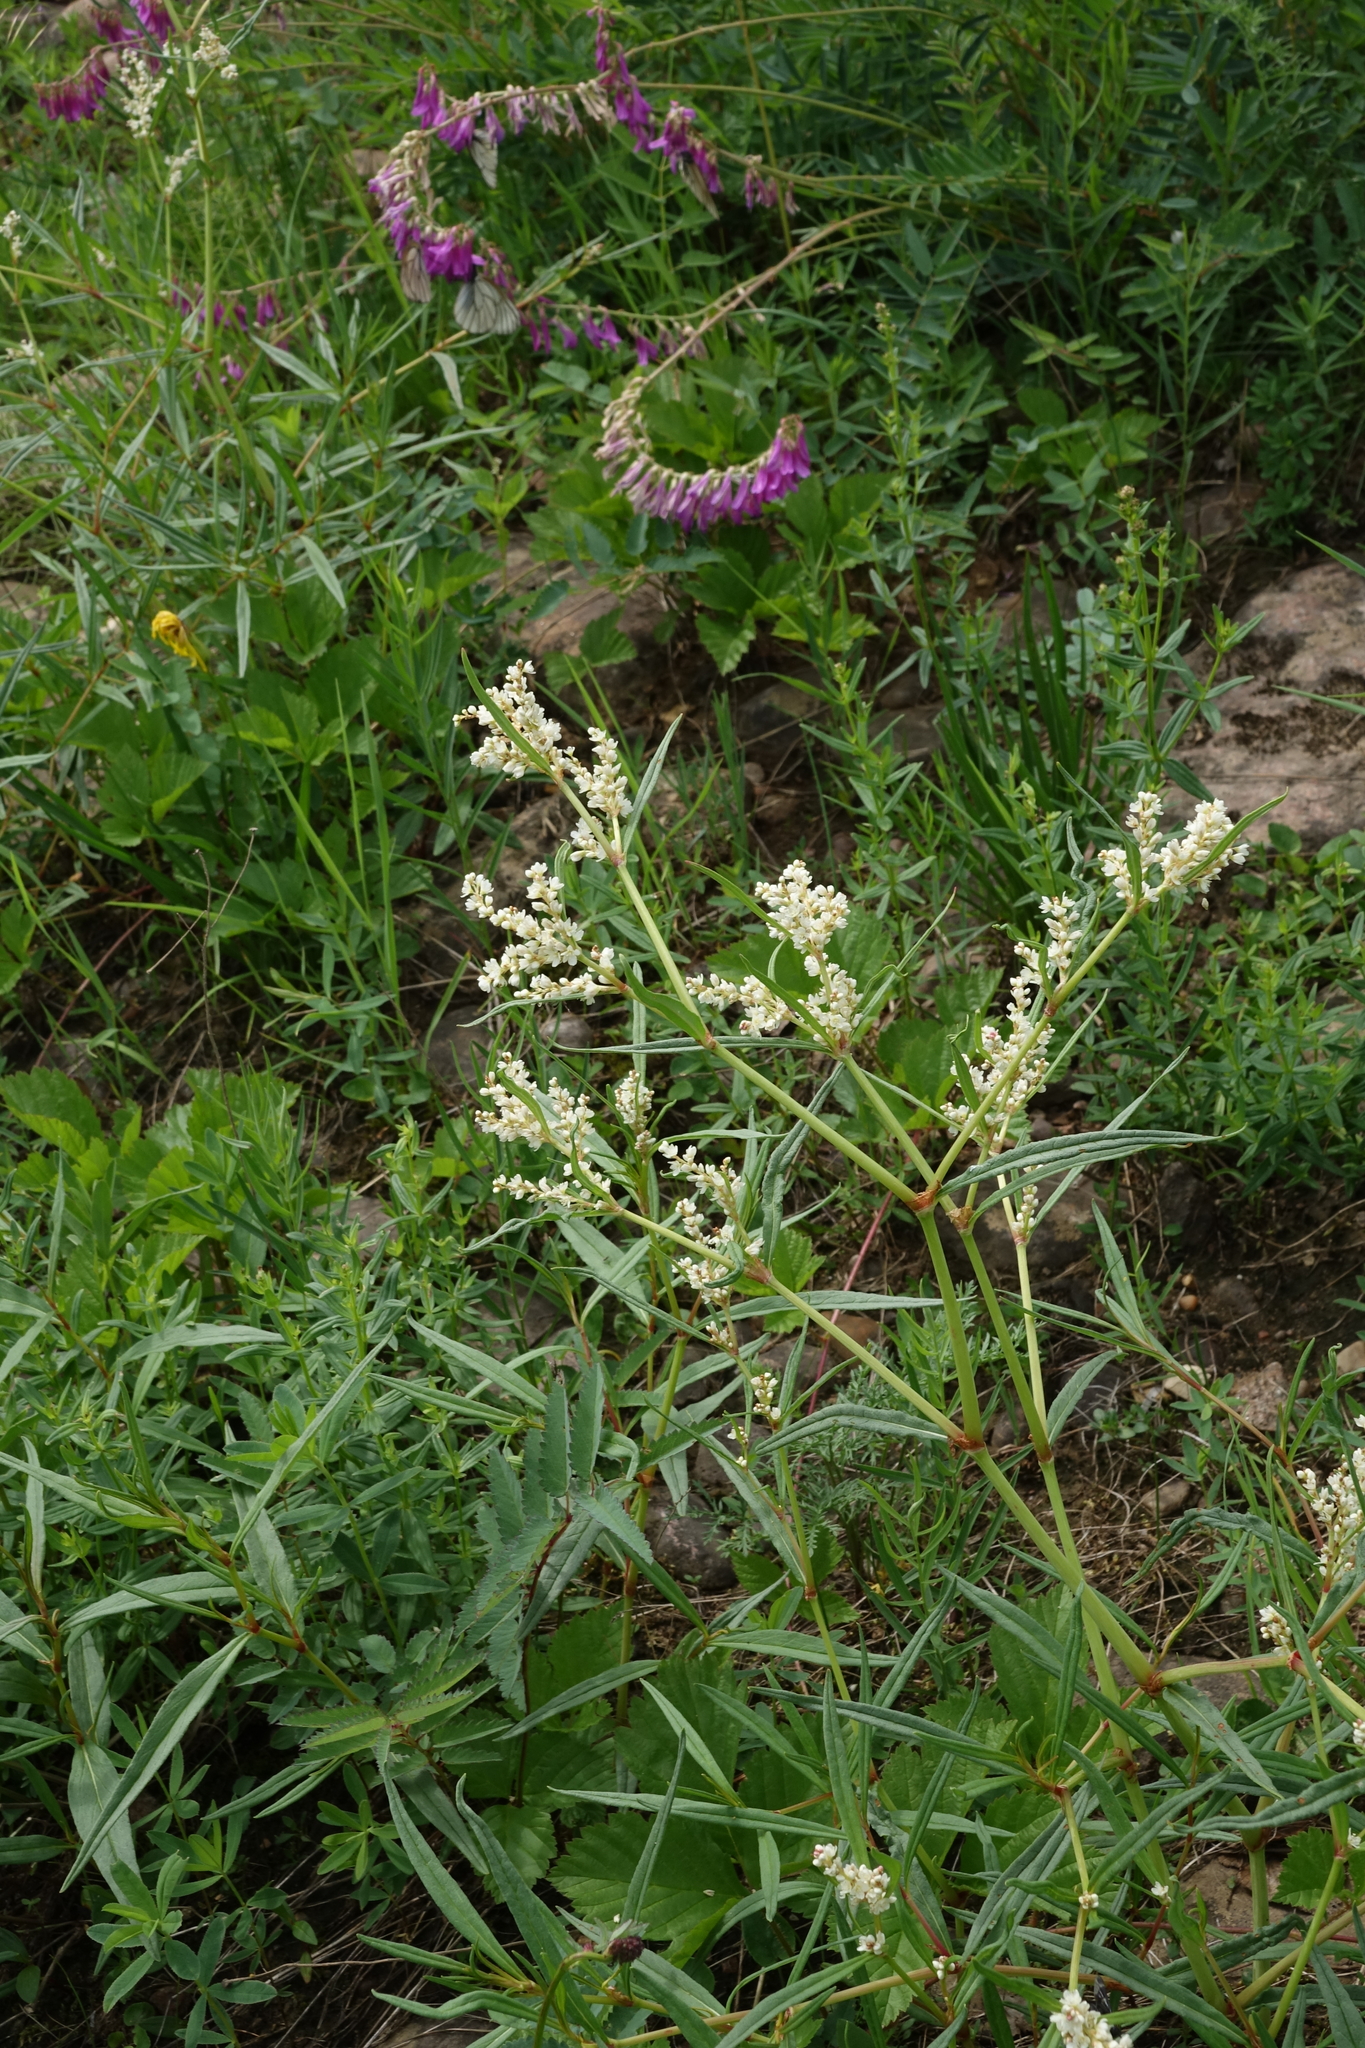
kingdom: Plantae
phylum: Tracheophyta
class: Magnoliopsida
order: Caryophyllales
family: Polygonaceae
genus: Koenigia
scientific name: Koenigia divaricata
